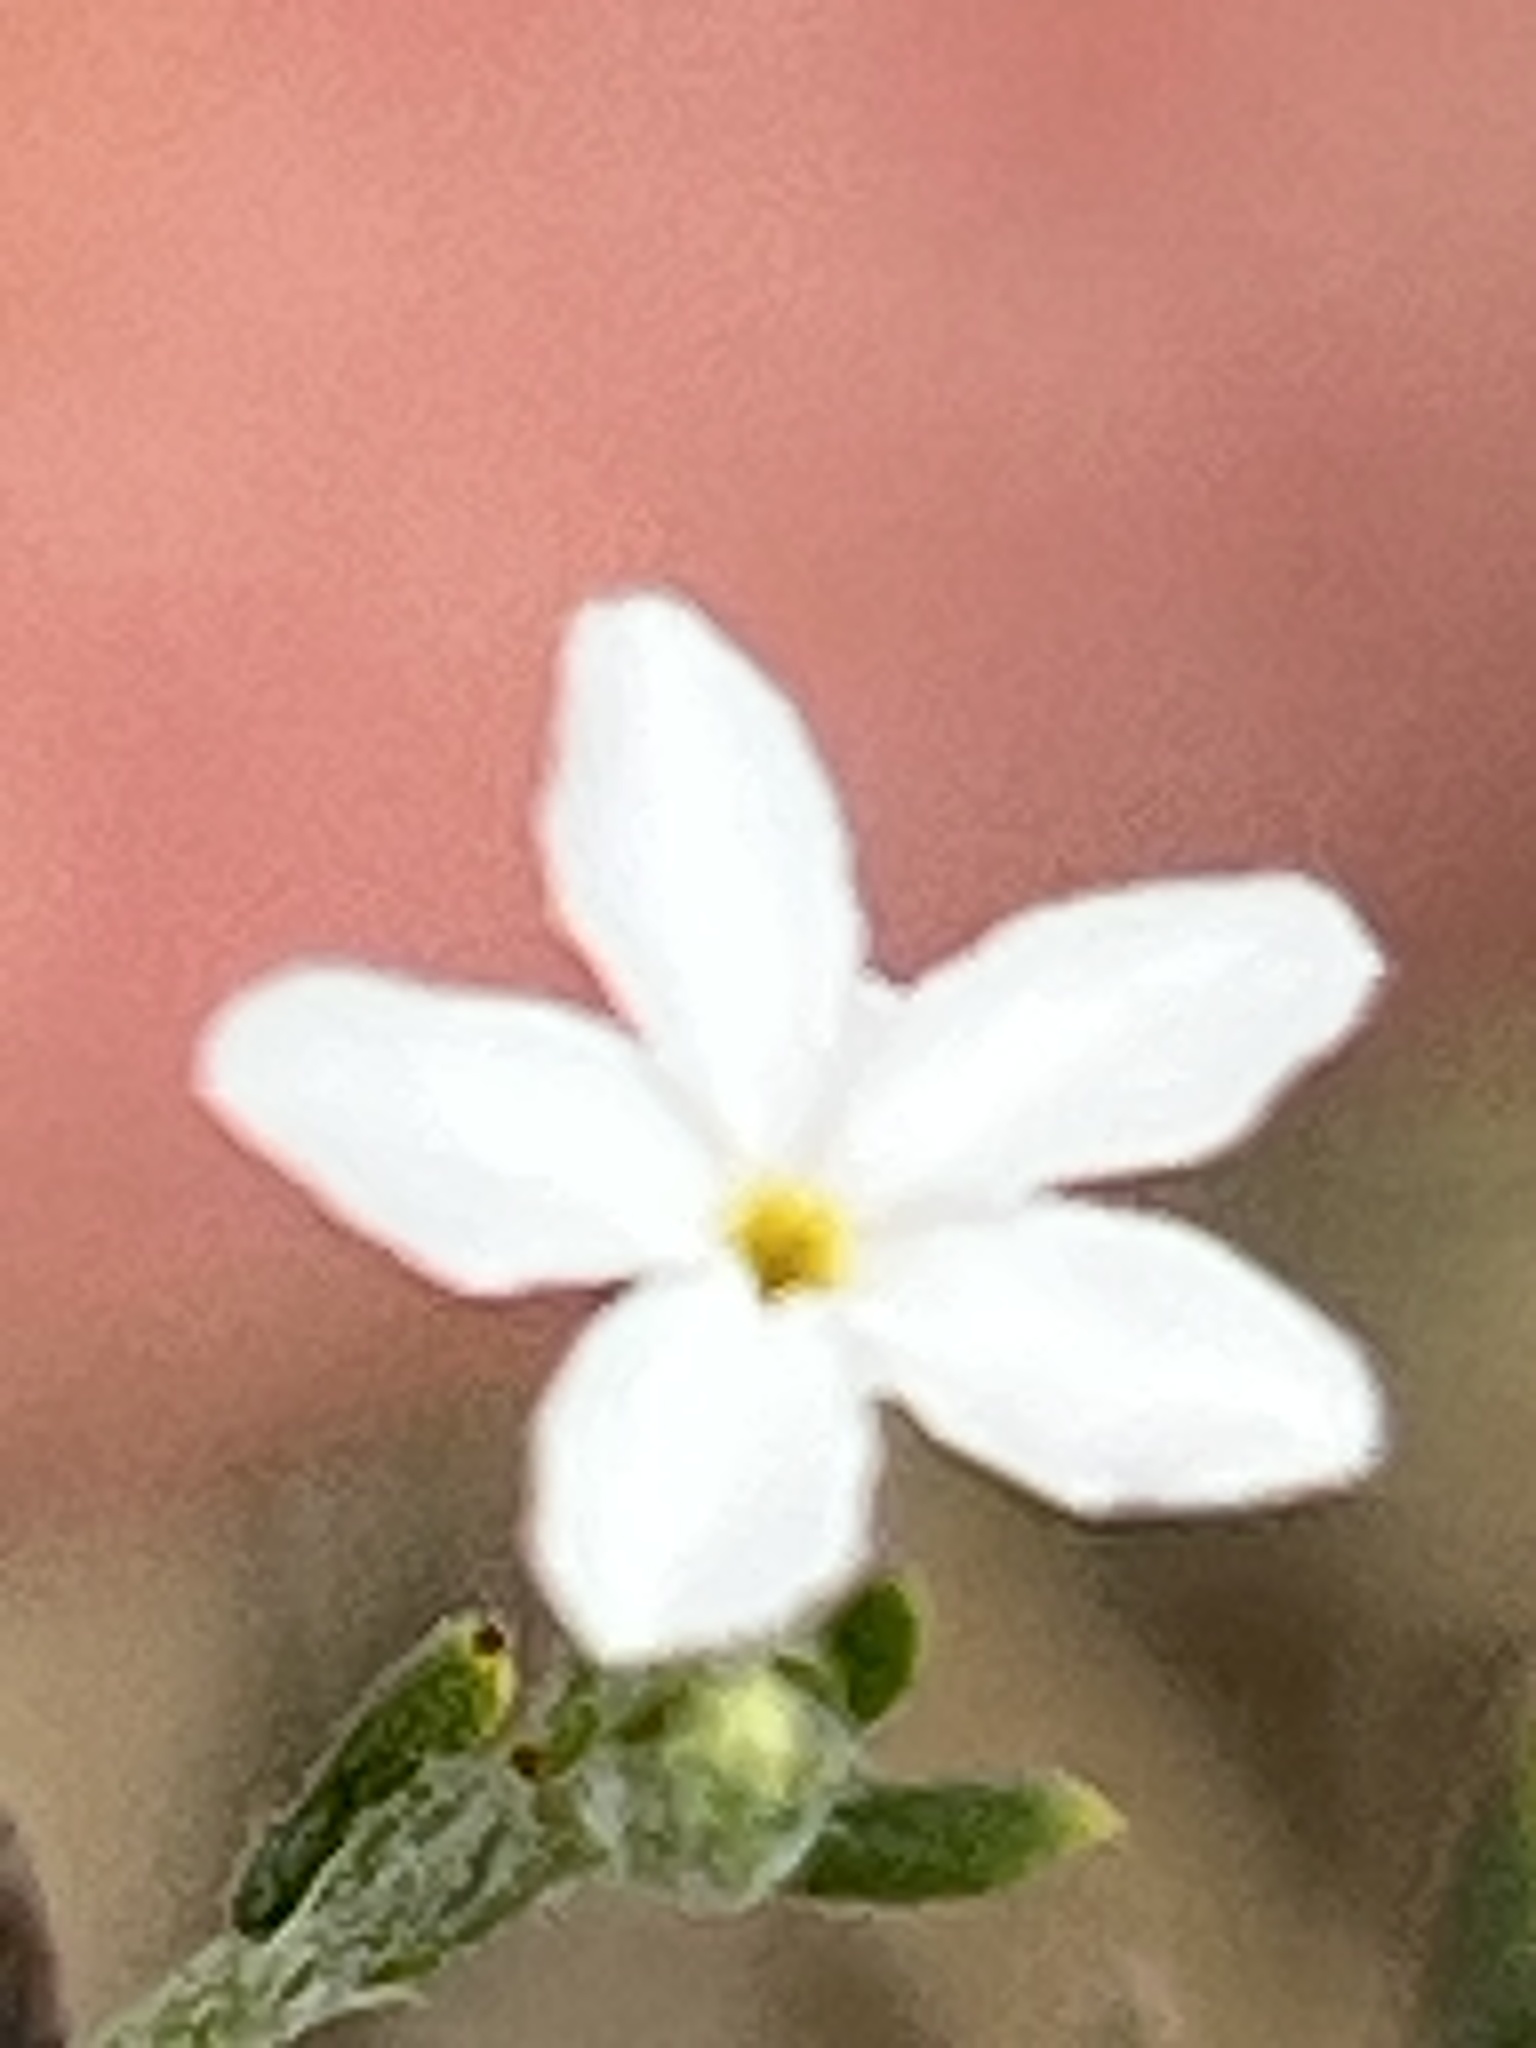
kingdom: Plantae
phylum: Tracheophyta
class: Magnoliopsida
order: Boraginales
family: Heliotropiaceae
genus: Euploca
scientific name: Euploca tenella
